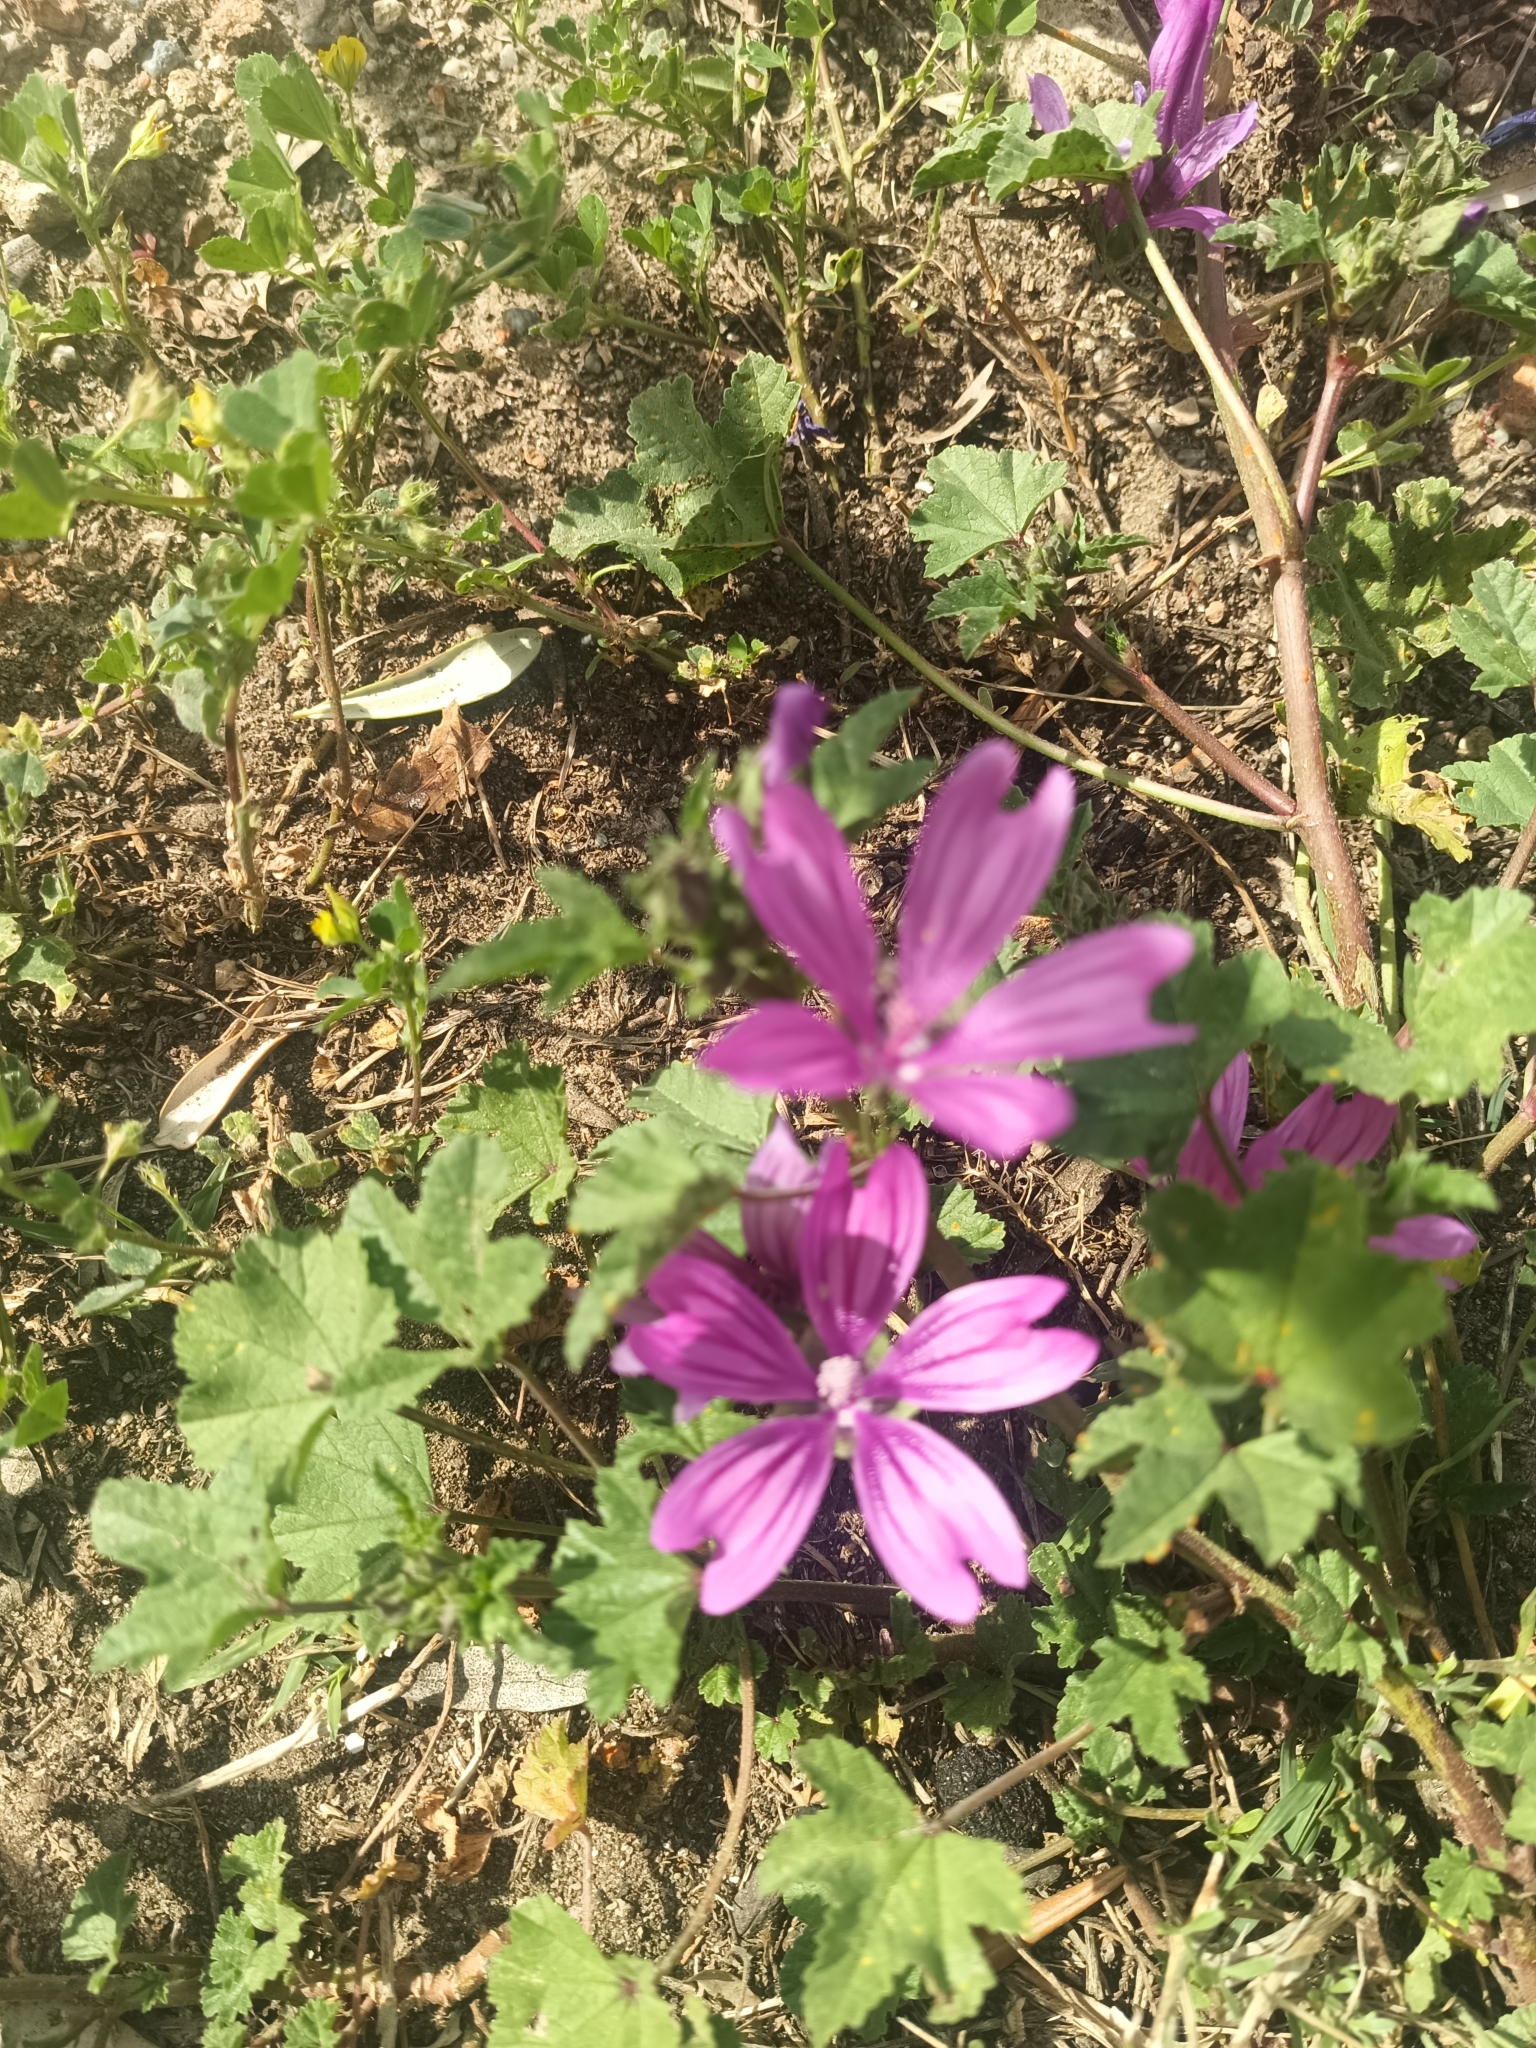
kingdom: Plantae
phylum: Tracheophyta
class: Magnoliopsida
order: Malvales
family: Malvaceae
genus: Malva
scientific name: Malva sylvestris
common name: Common mallow
